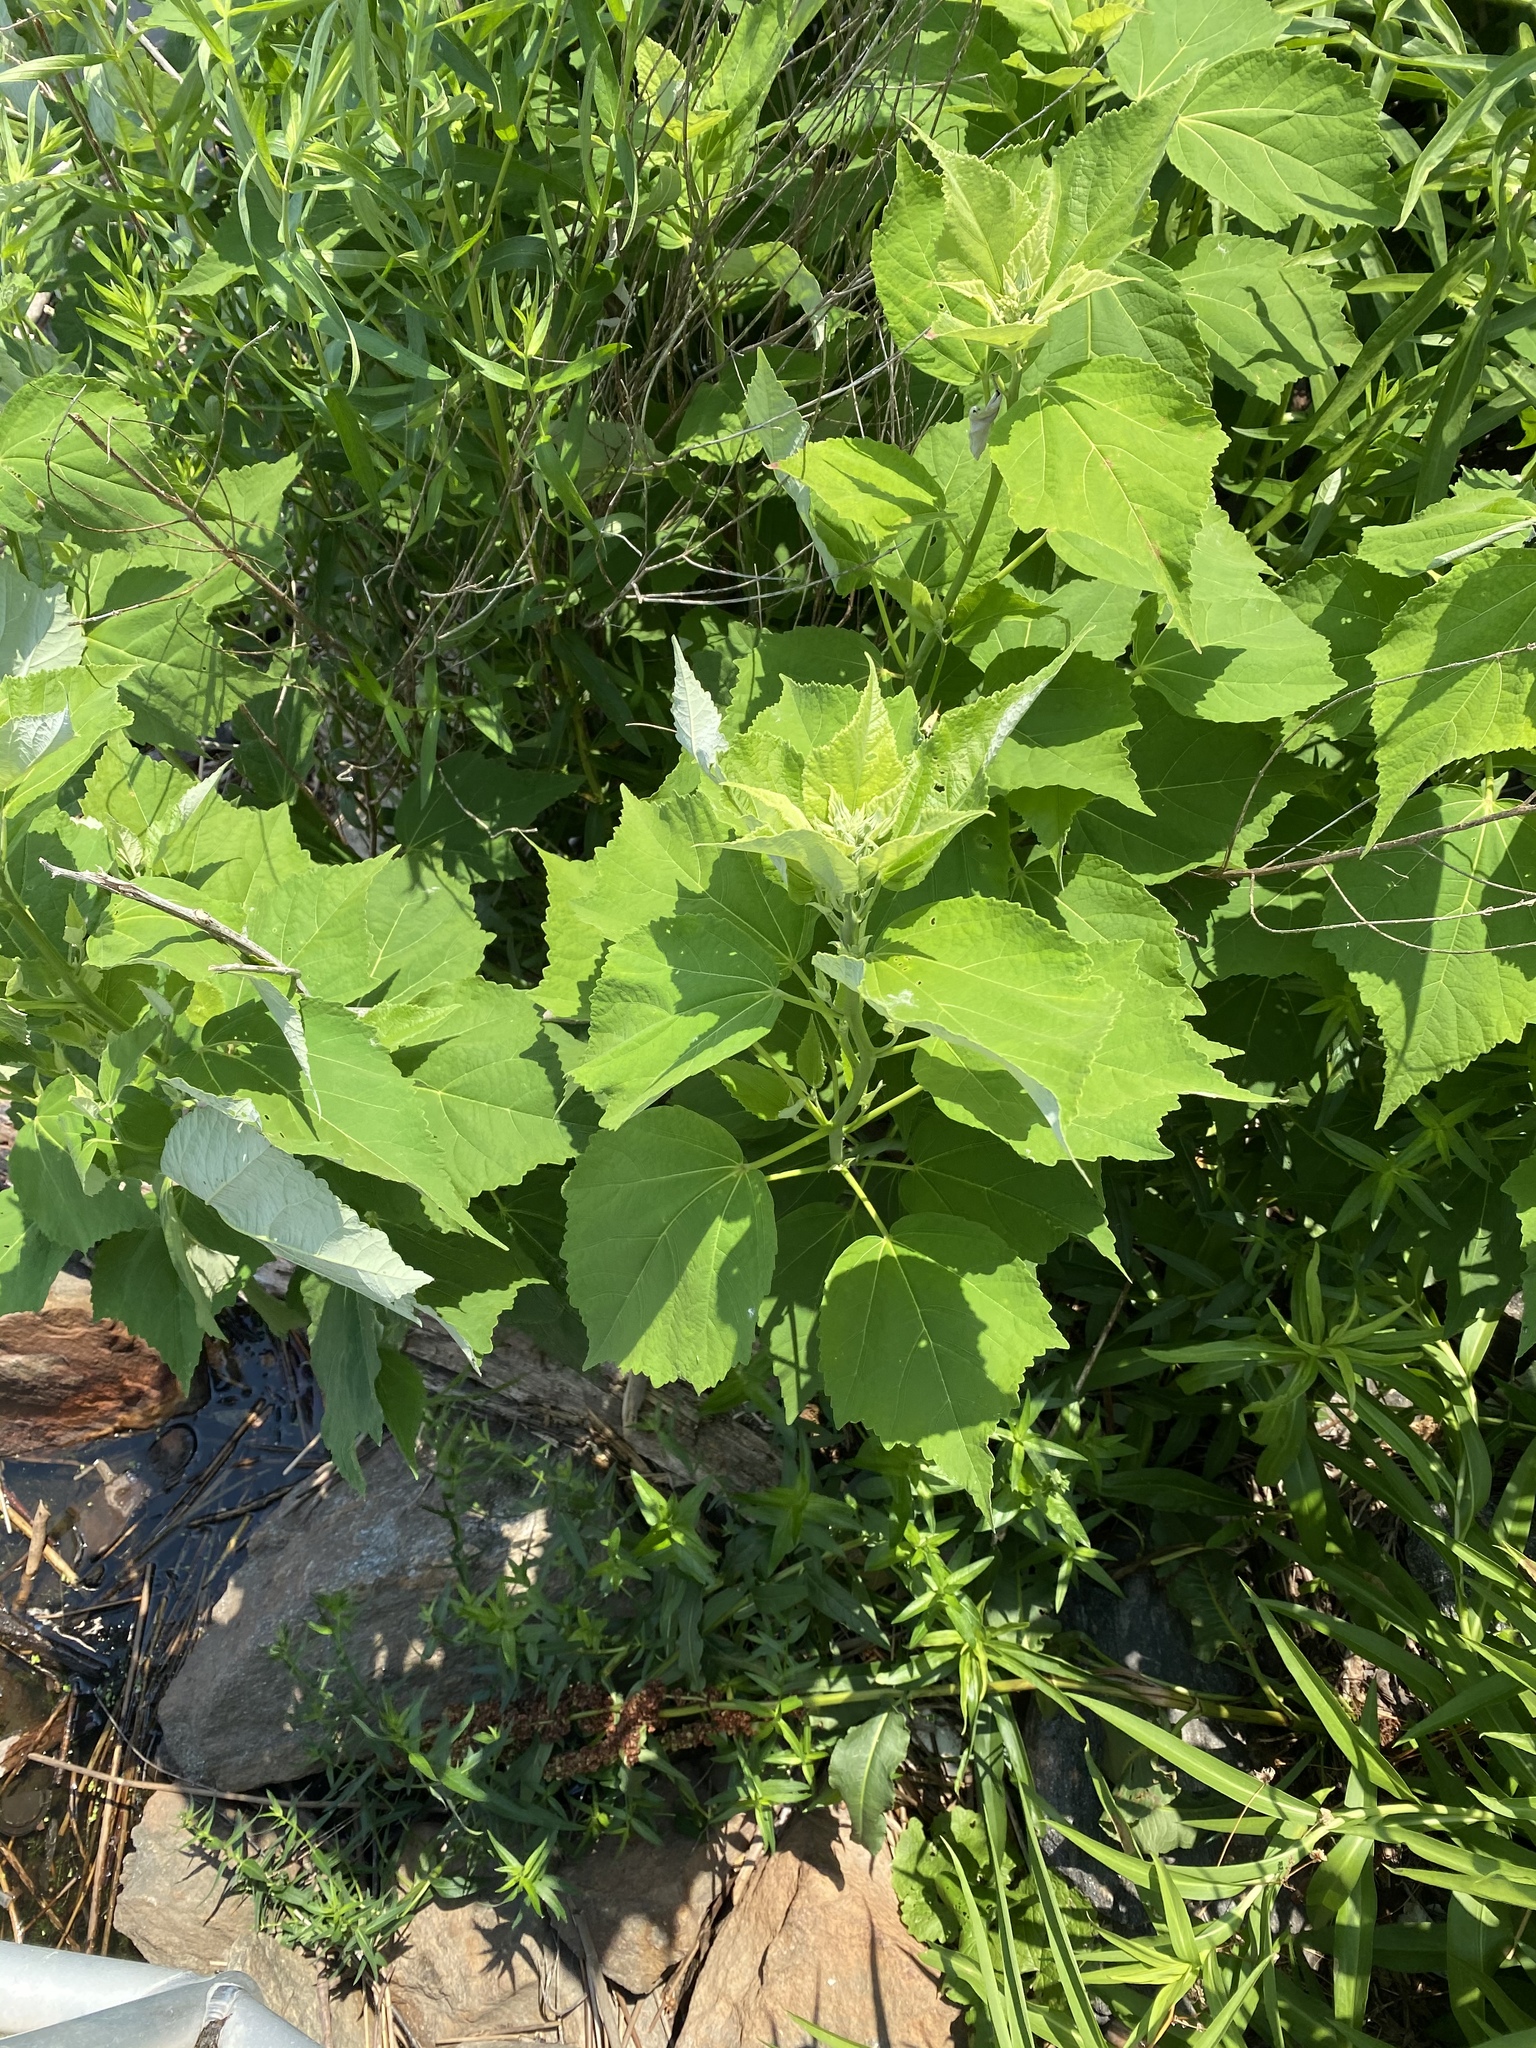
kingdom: Plantae
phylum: Tracheophyta
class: Magnoliopsida
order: Malvales
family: Malvaceae
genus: Hibiscus
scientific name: Hibiscus moscheutos
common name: Common rose-mallow
